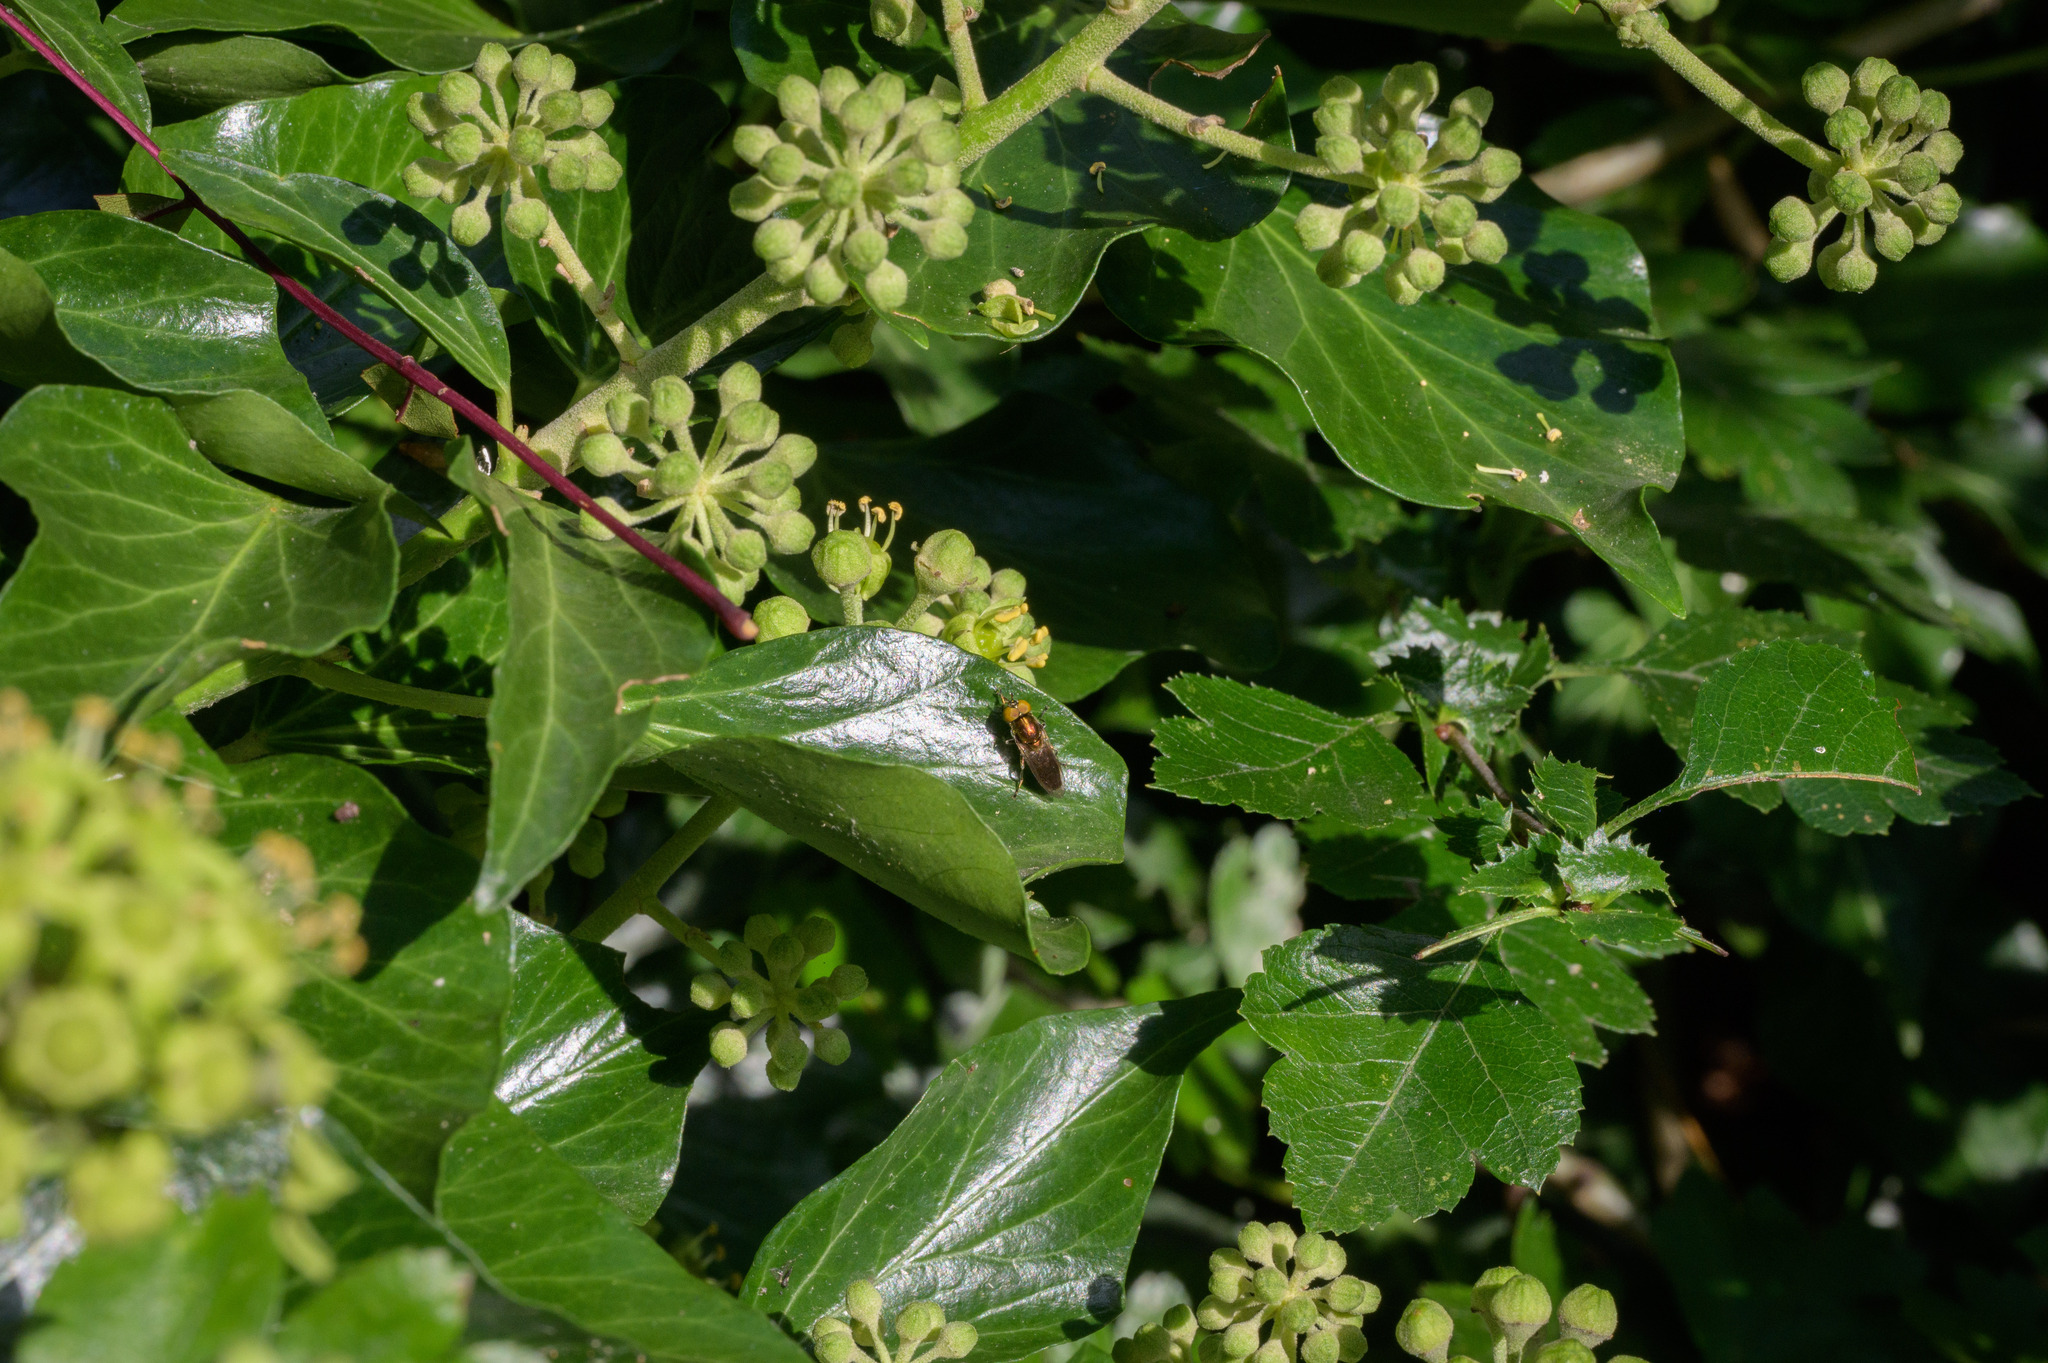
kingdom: Animalia
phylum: Arthropoda
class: Insecta
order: Diptera
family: Syrphidae
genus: Orthonevra
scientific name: Orthonevra splendens
